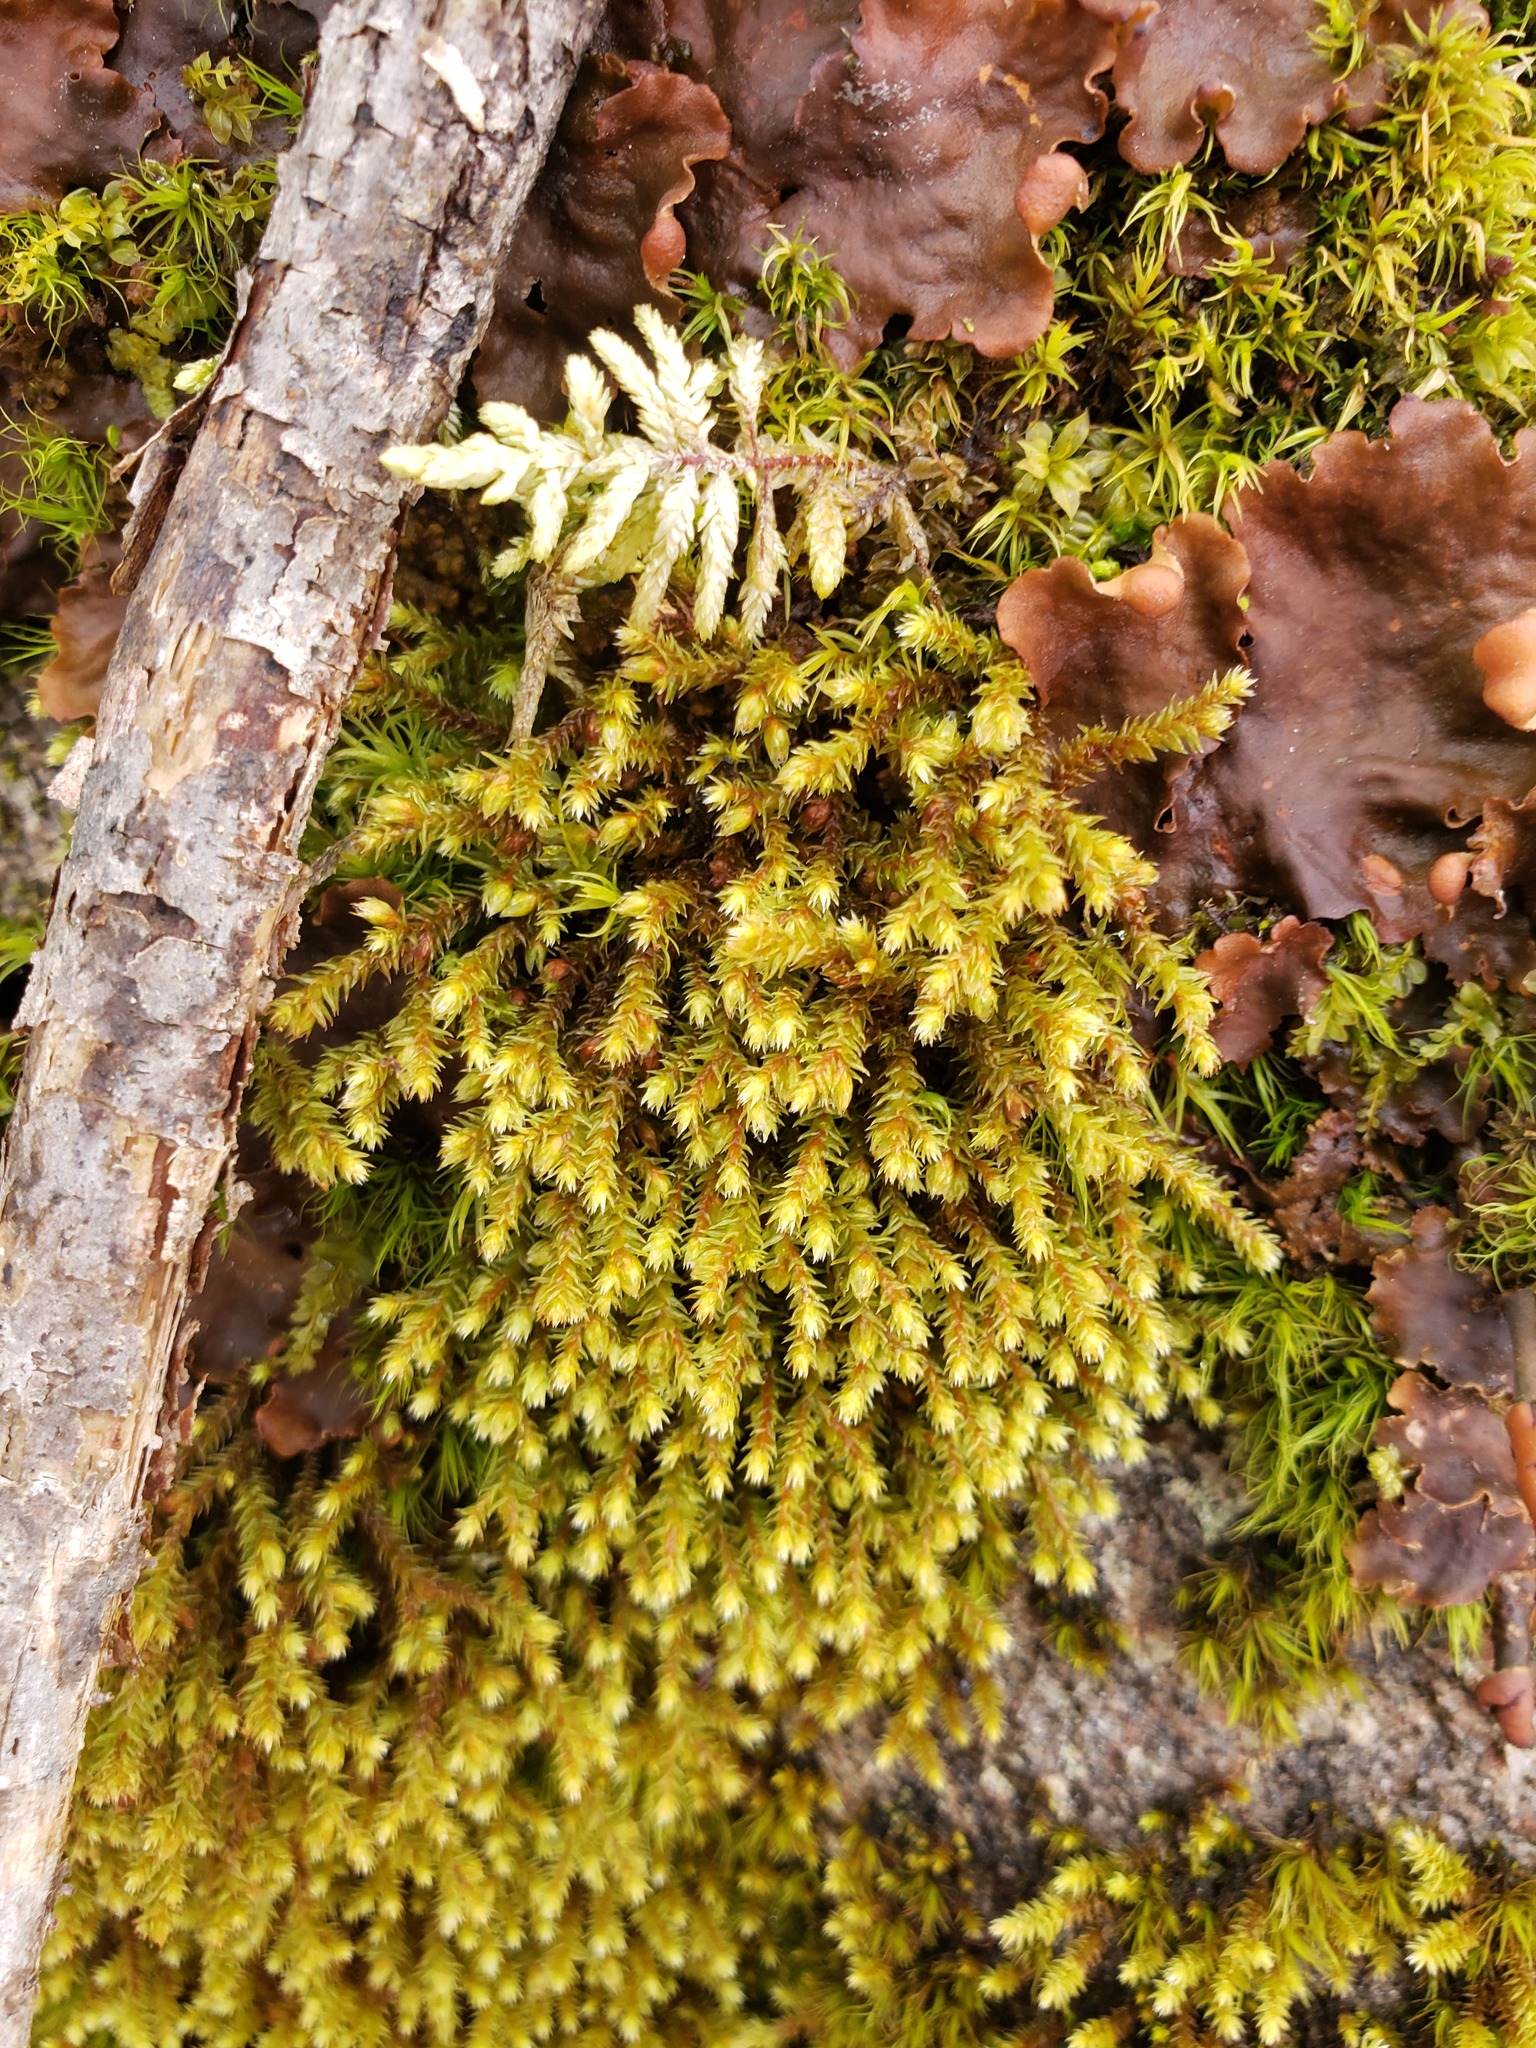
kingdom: Plantae
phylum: Bryophyta
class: Bryopsida
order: Hedwigiales
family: Hedwigiaceae
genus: Hedwigia
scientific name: Hedwigia ciliata
